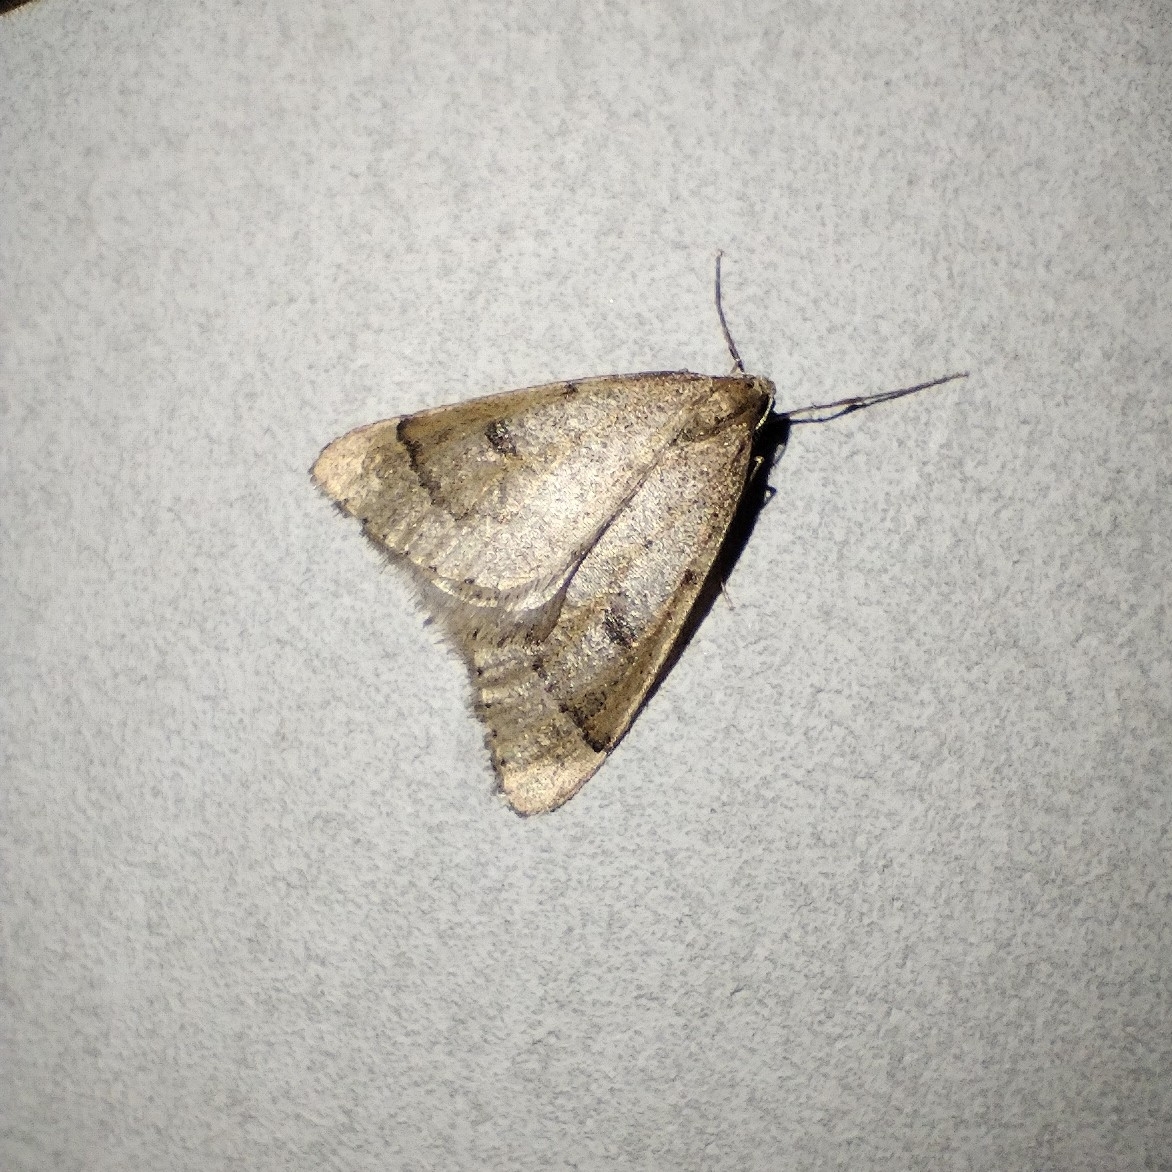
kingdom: Animalia
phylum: Arthropoda
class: Insecta
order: Lepidoptera
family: Geometridae
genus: Theria
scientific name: Theria rupicapraria
